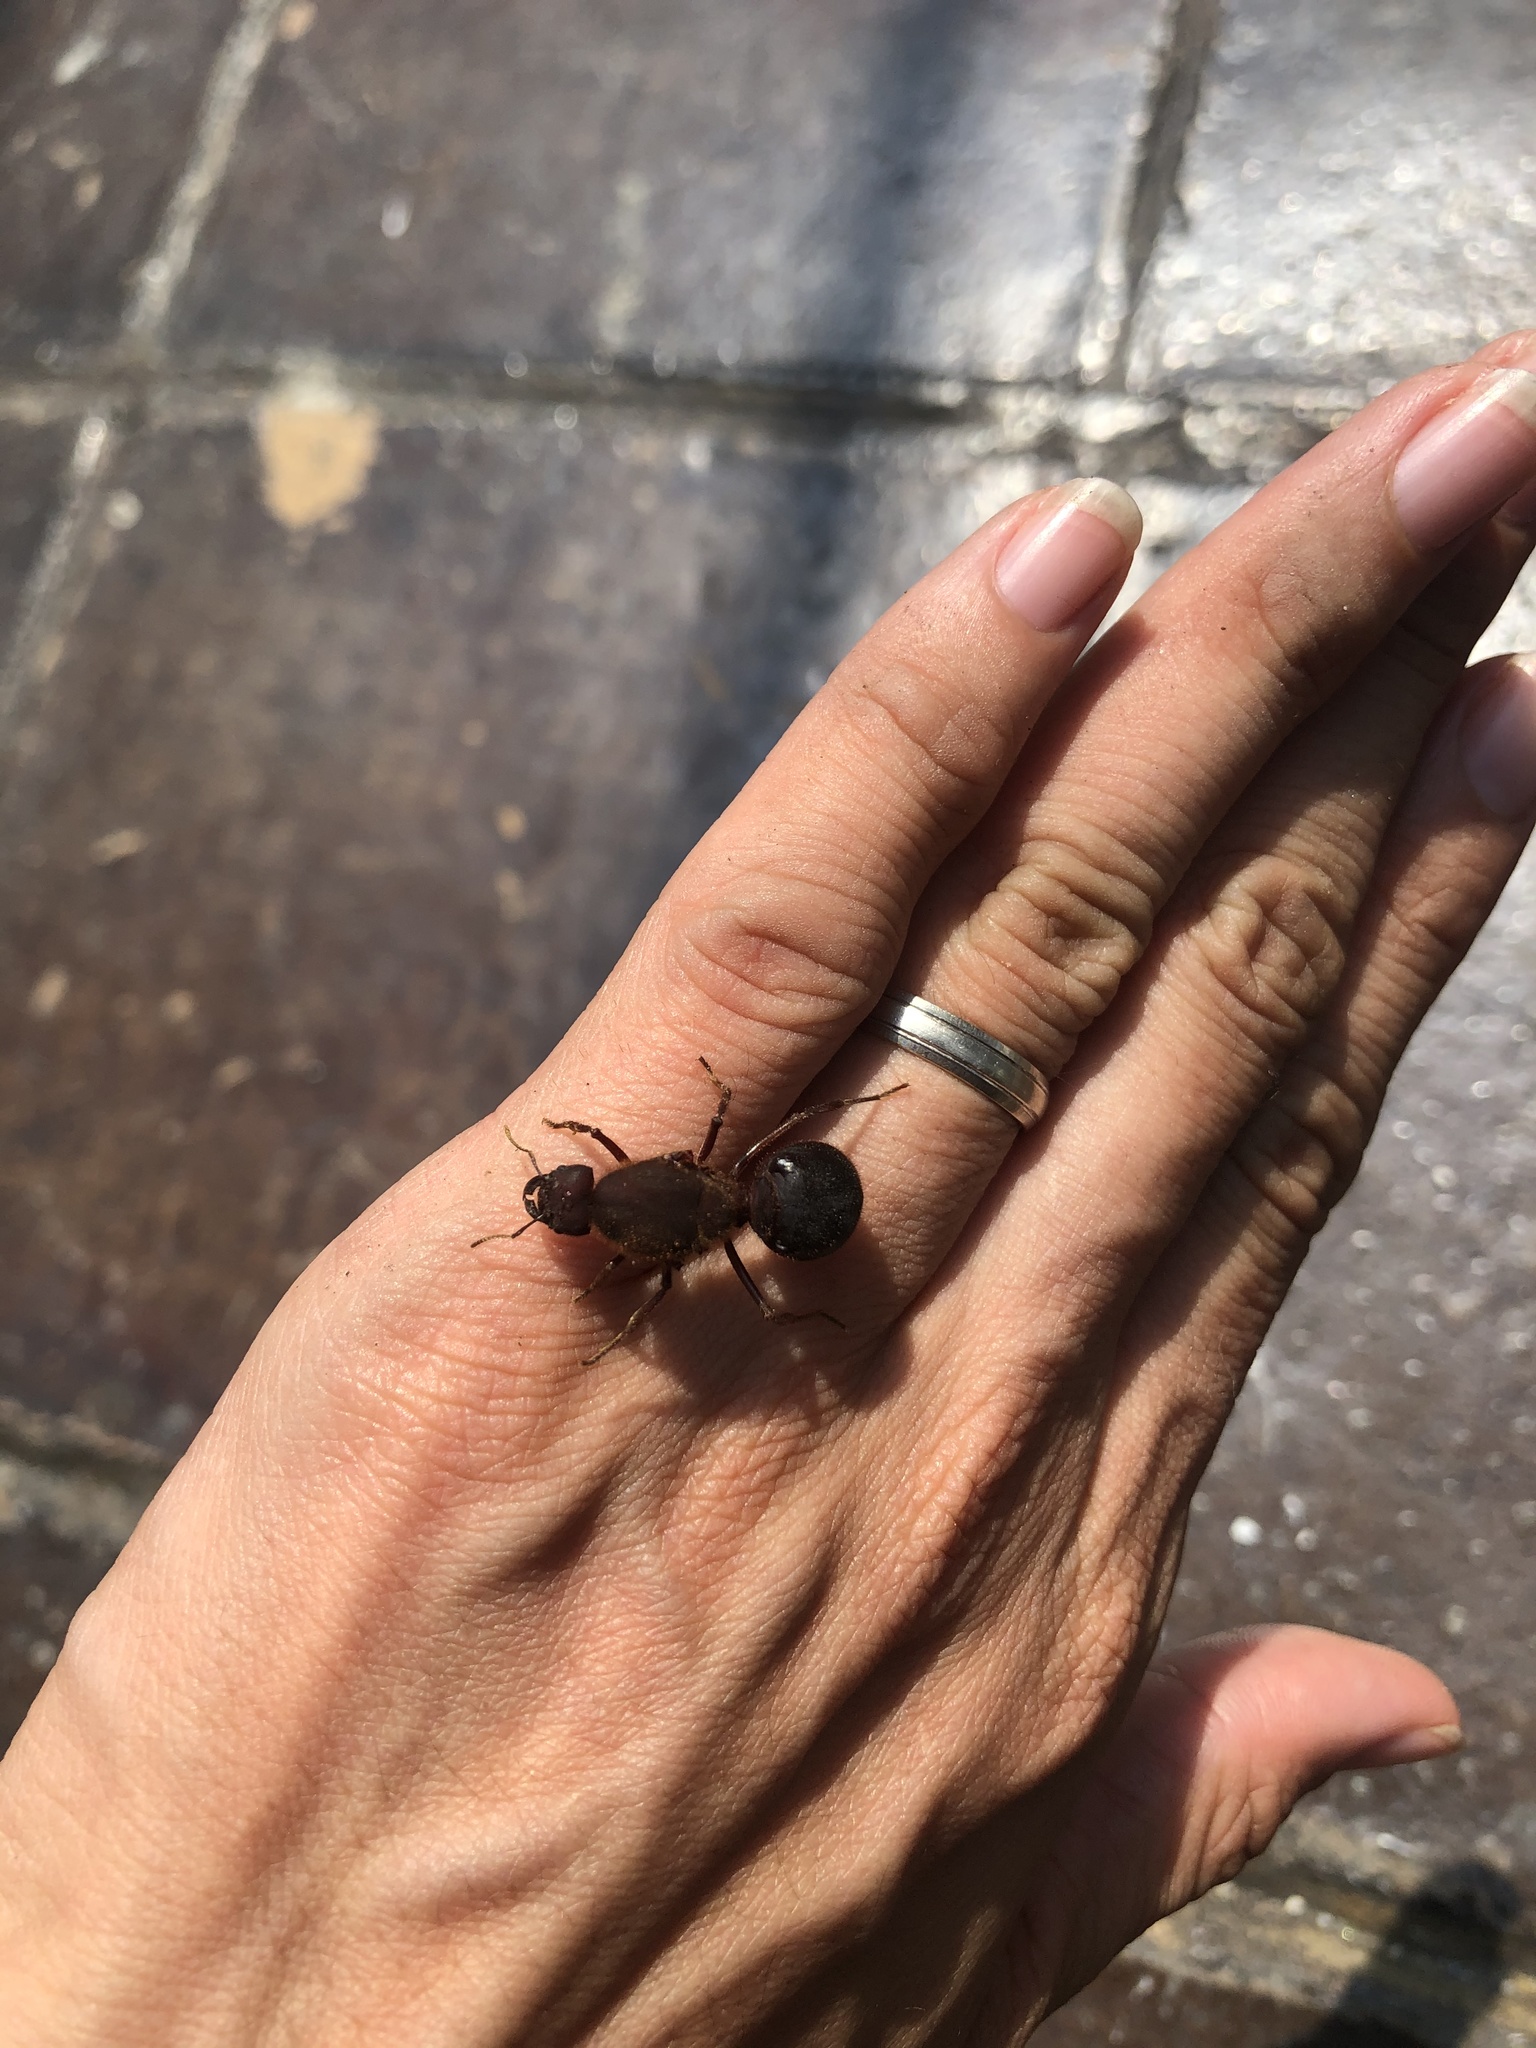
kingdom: Animalia
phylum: Arthropoda
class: Insecta
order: Hymenoptera
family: Formicidae
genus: Atta
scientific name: Atta mexicana
